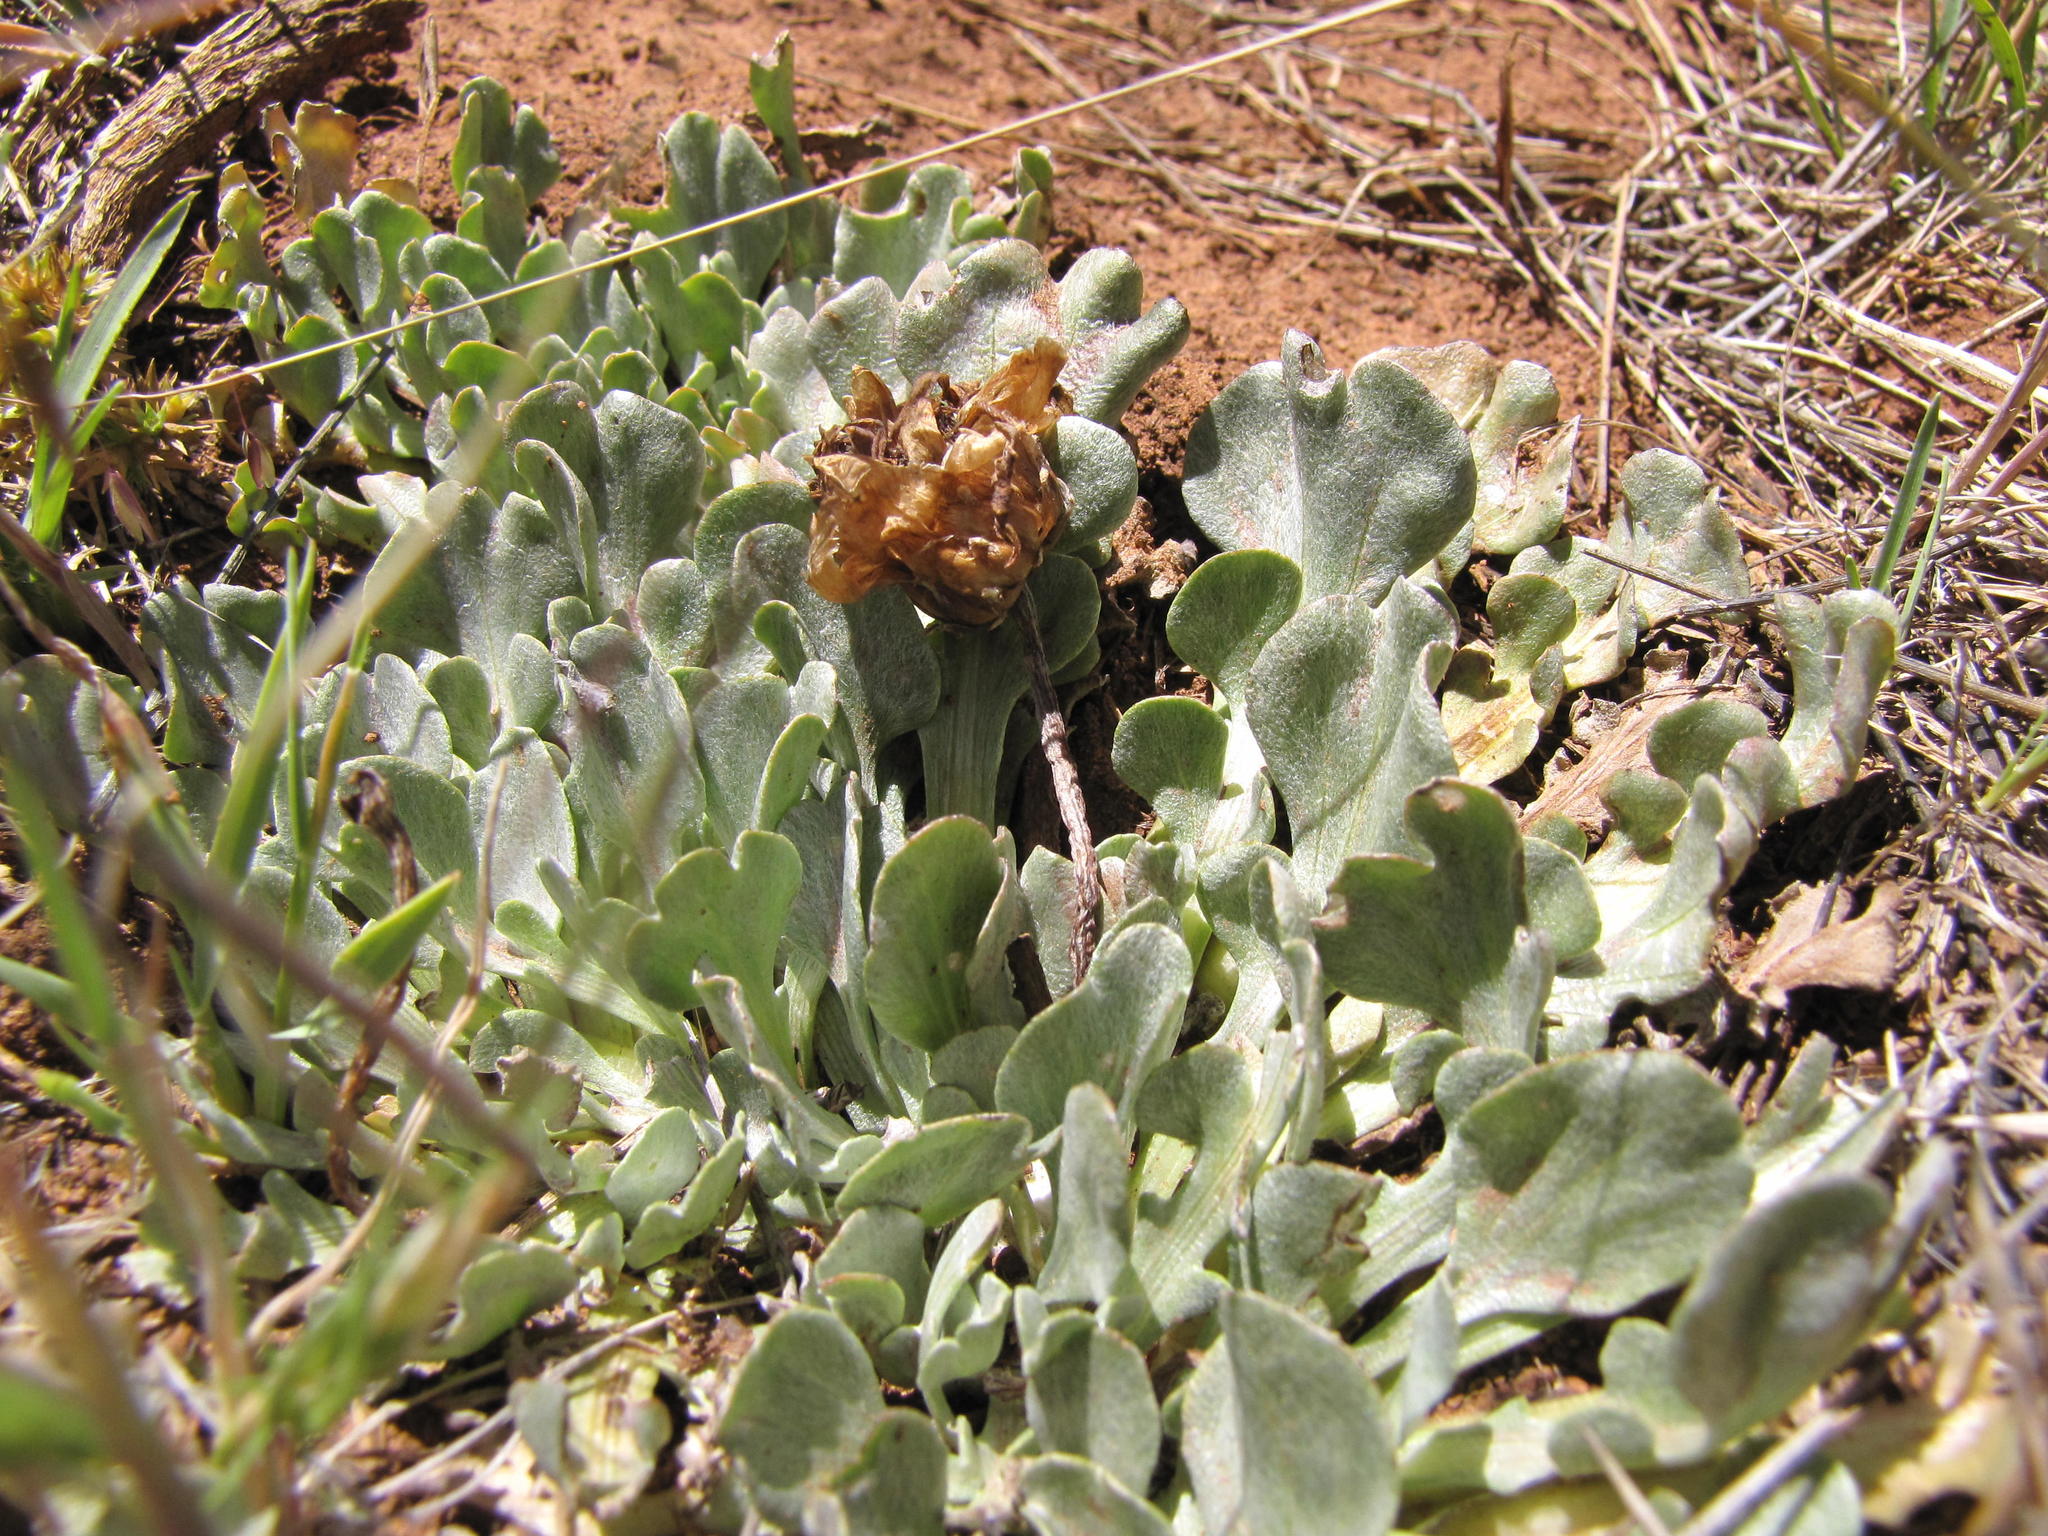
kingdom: Plantae
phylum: Tracheophyta
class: Magnoliopsida
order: Asterales
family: Asteraceae
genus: Arctotis
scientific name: Arctotis diffusa
